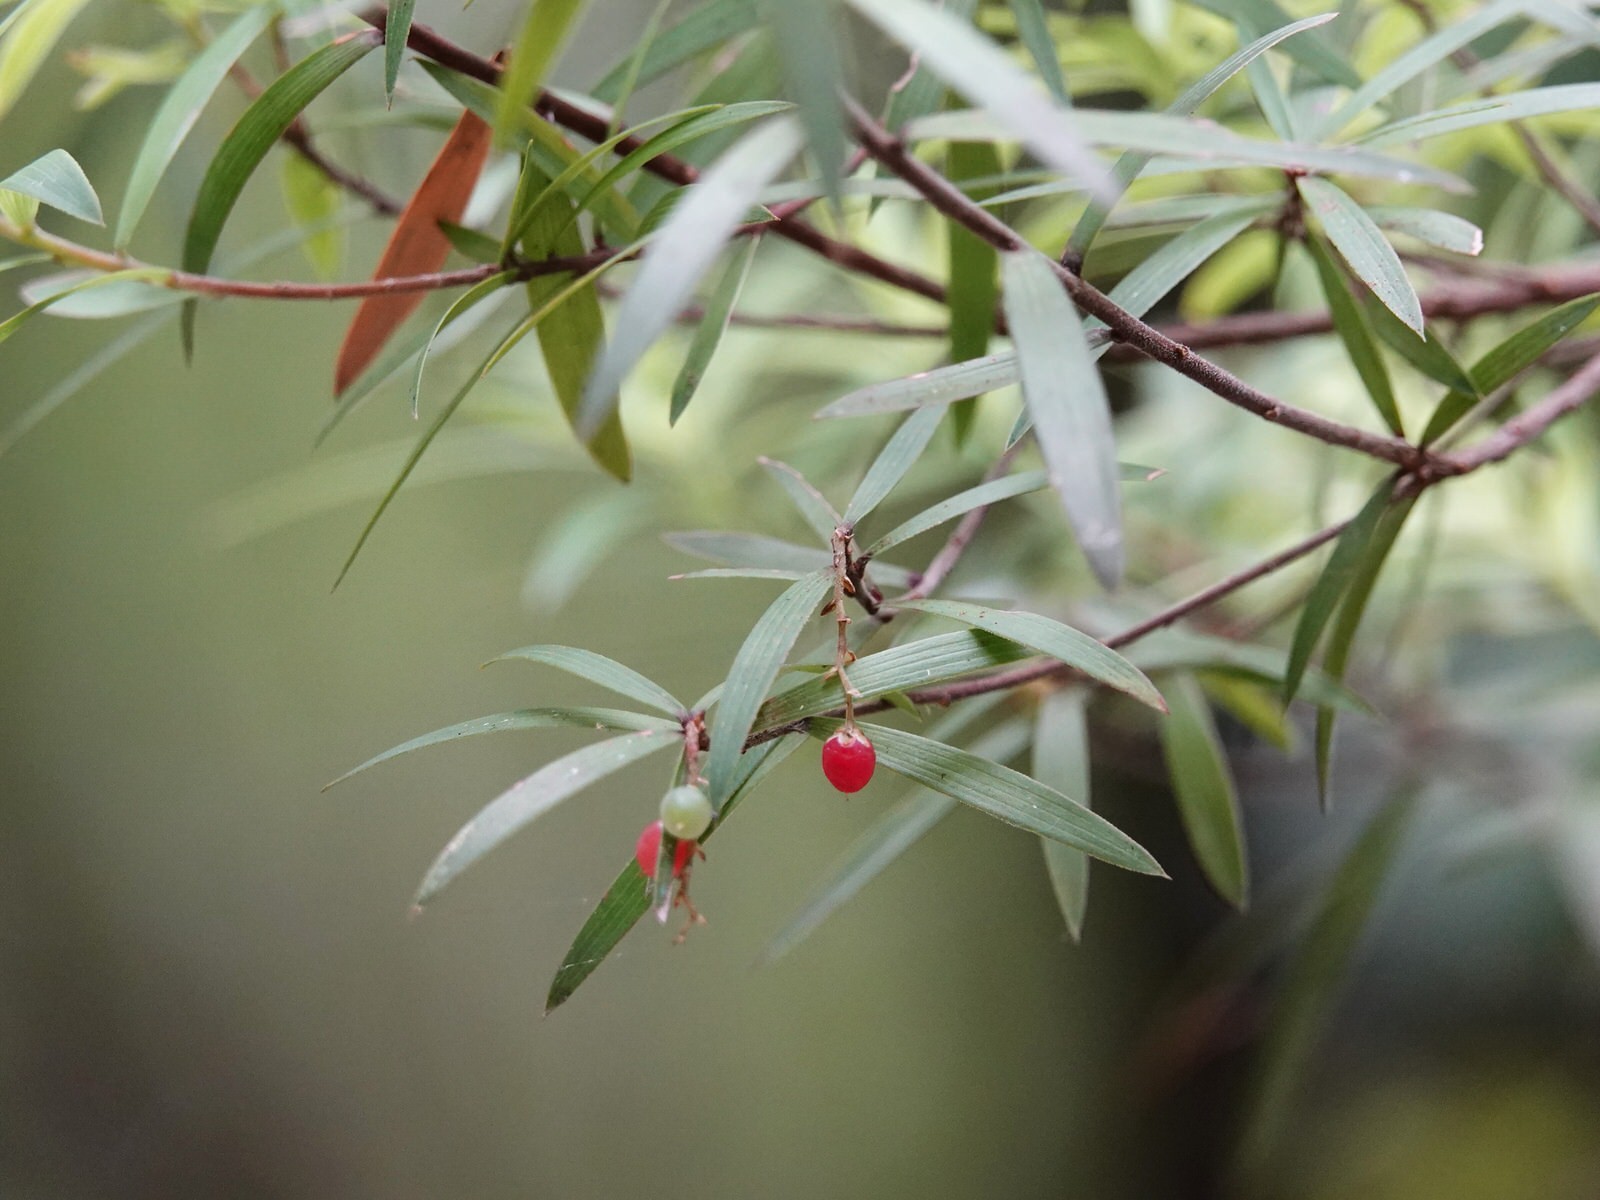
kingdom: Plantae
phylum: Tracheophyta
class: Magnoliopsida
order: Ericales
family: Ericaceae
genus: Leucopogon
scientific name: Leucopogon fasciculatus
